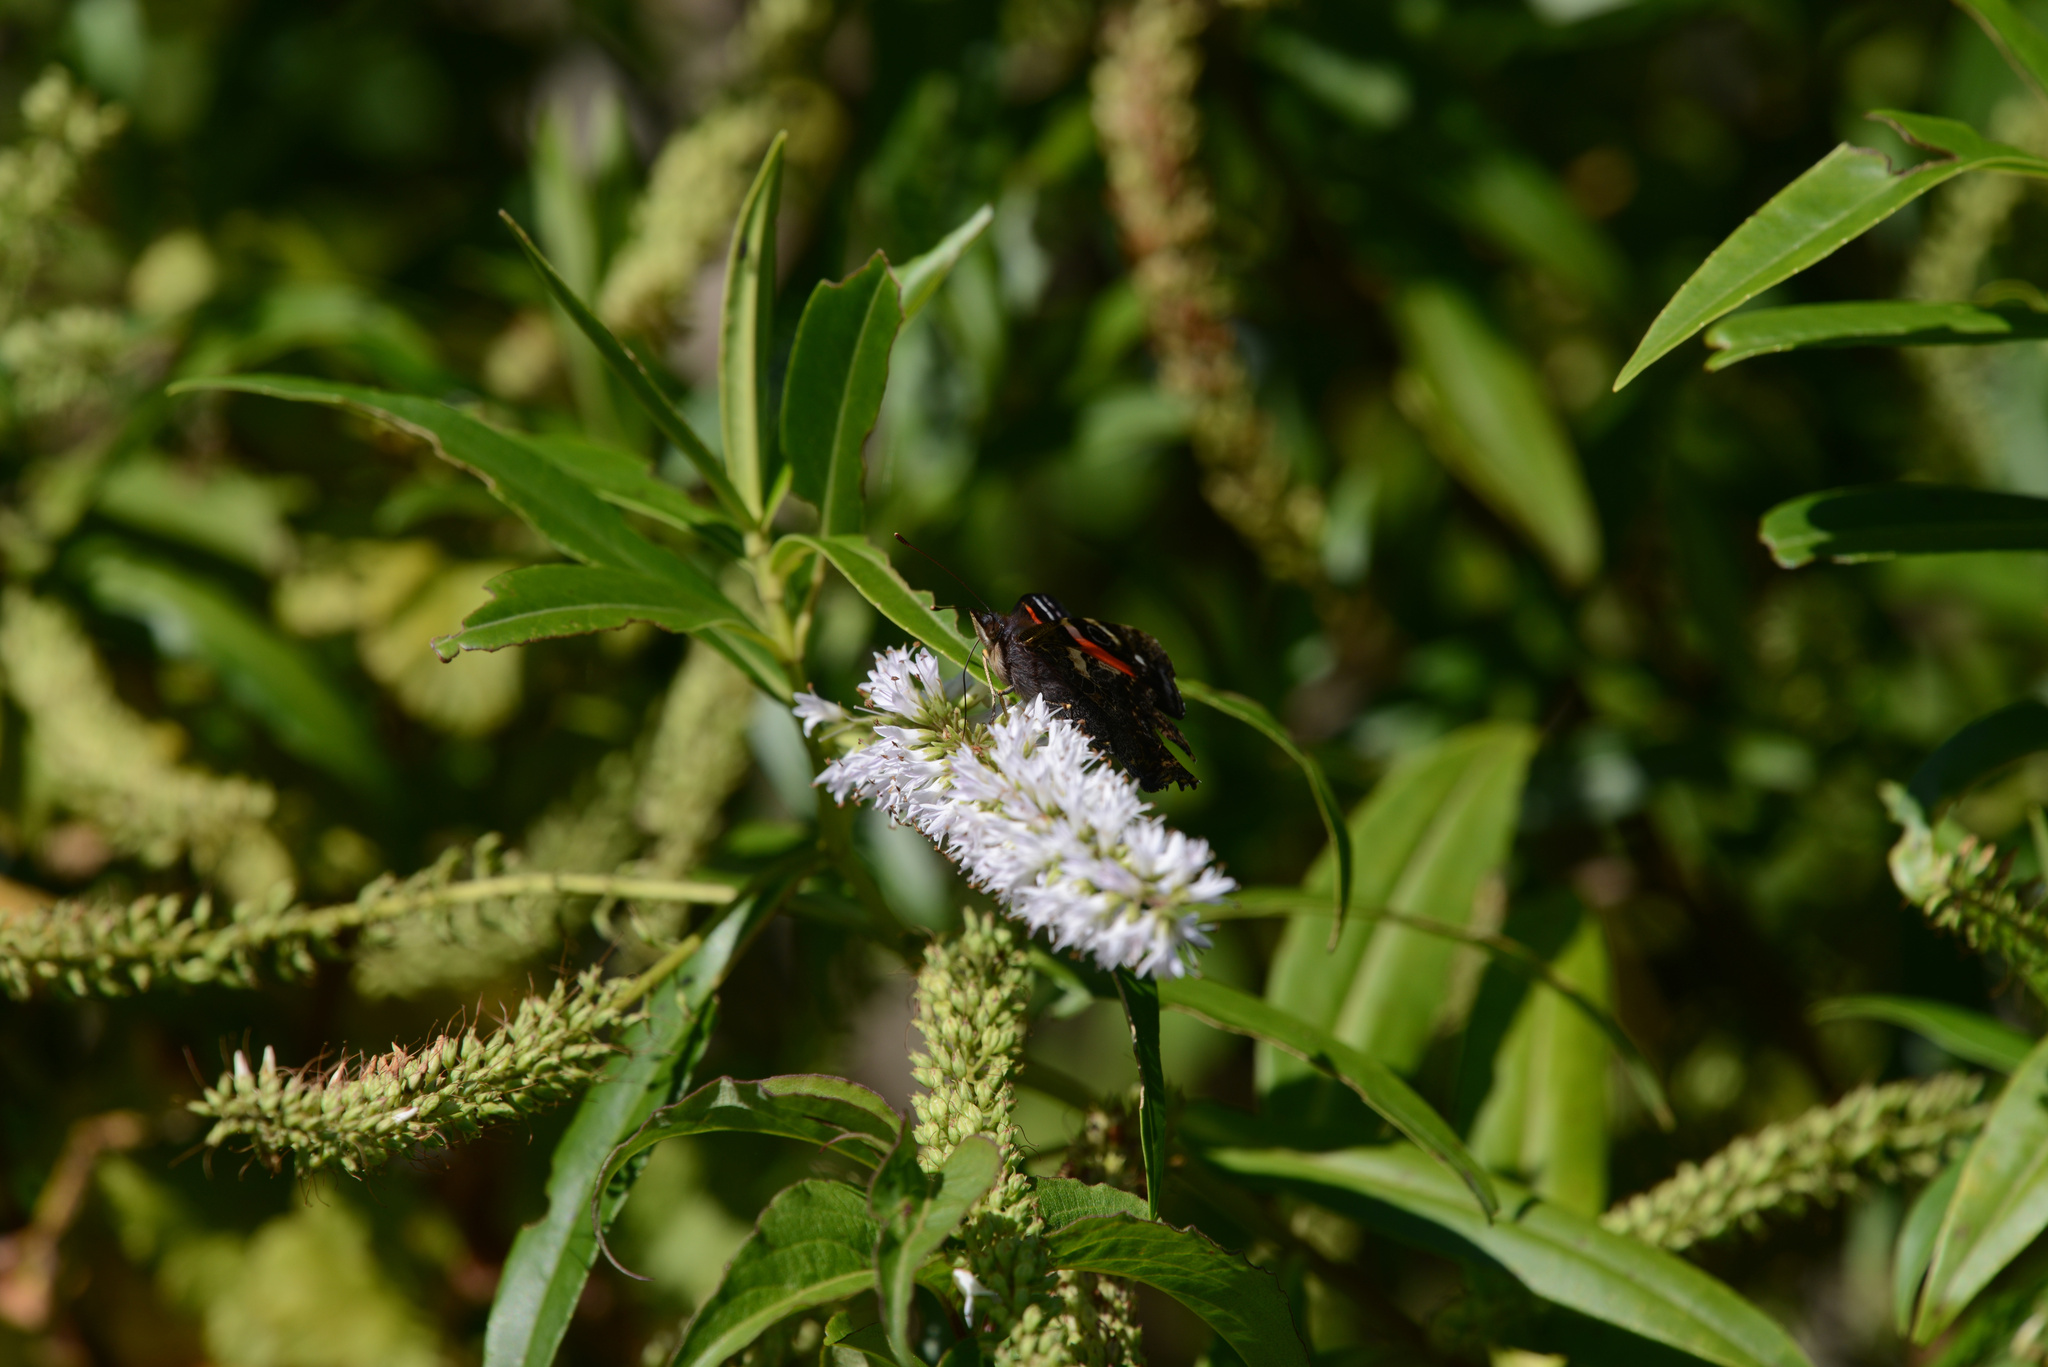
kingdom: Plantae
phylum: Tracheophyta
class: Magnoliopsida
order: Lamiales
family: Plantaginaceae
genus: Veronica
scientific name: Veronica salicifolia
